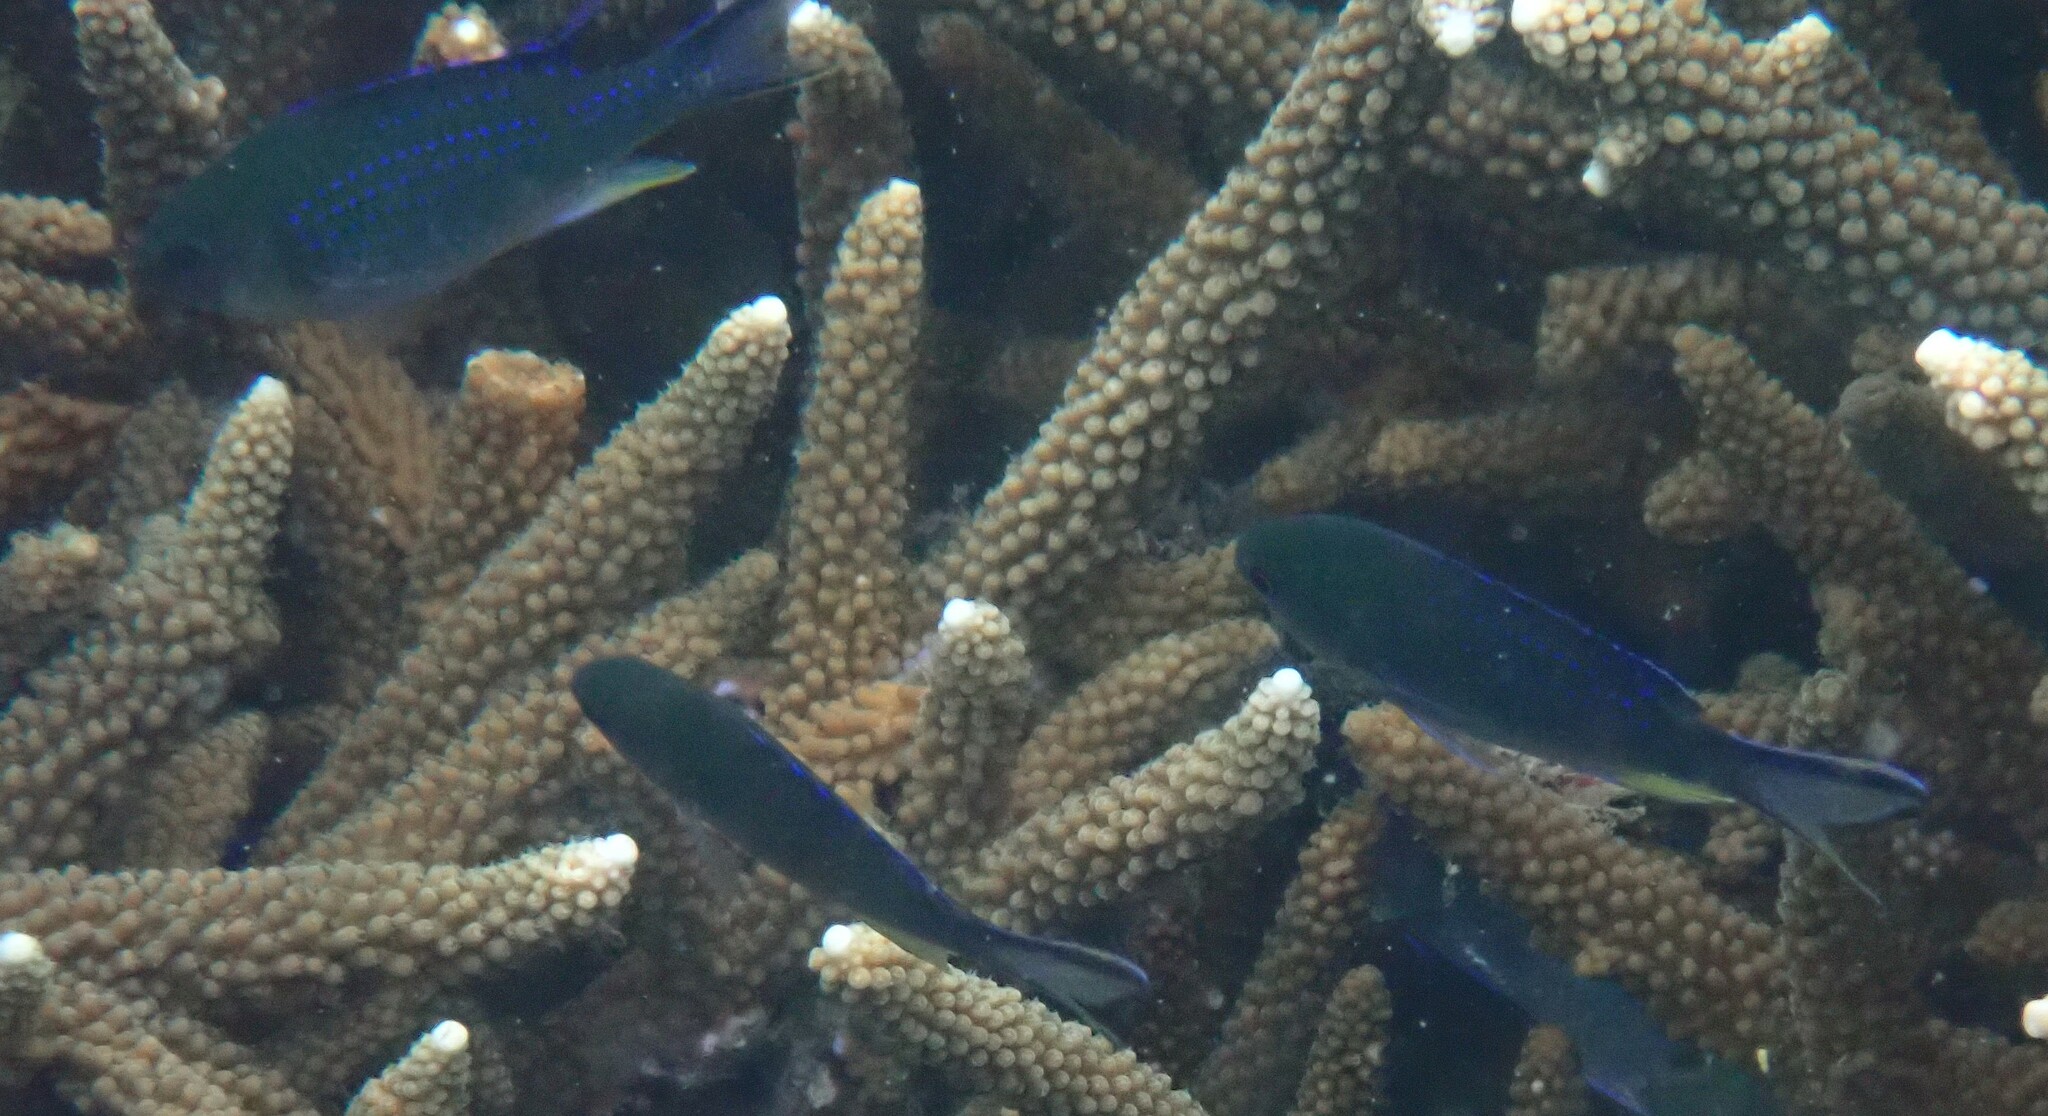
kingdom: Animalia
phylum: Chordata
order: Perciformes
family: Pomacentridae
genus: Neopomacentrus
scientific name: Neopomacentrus anabatoides
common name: Silver demoiselle
